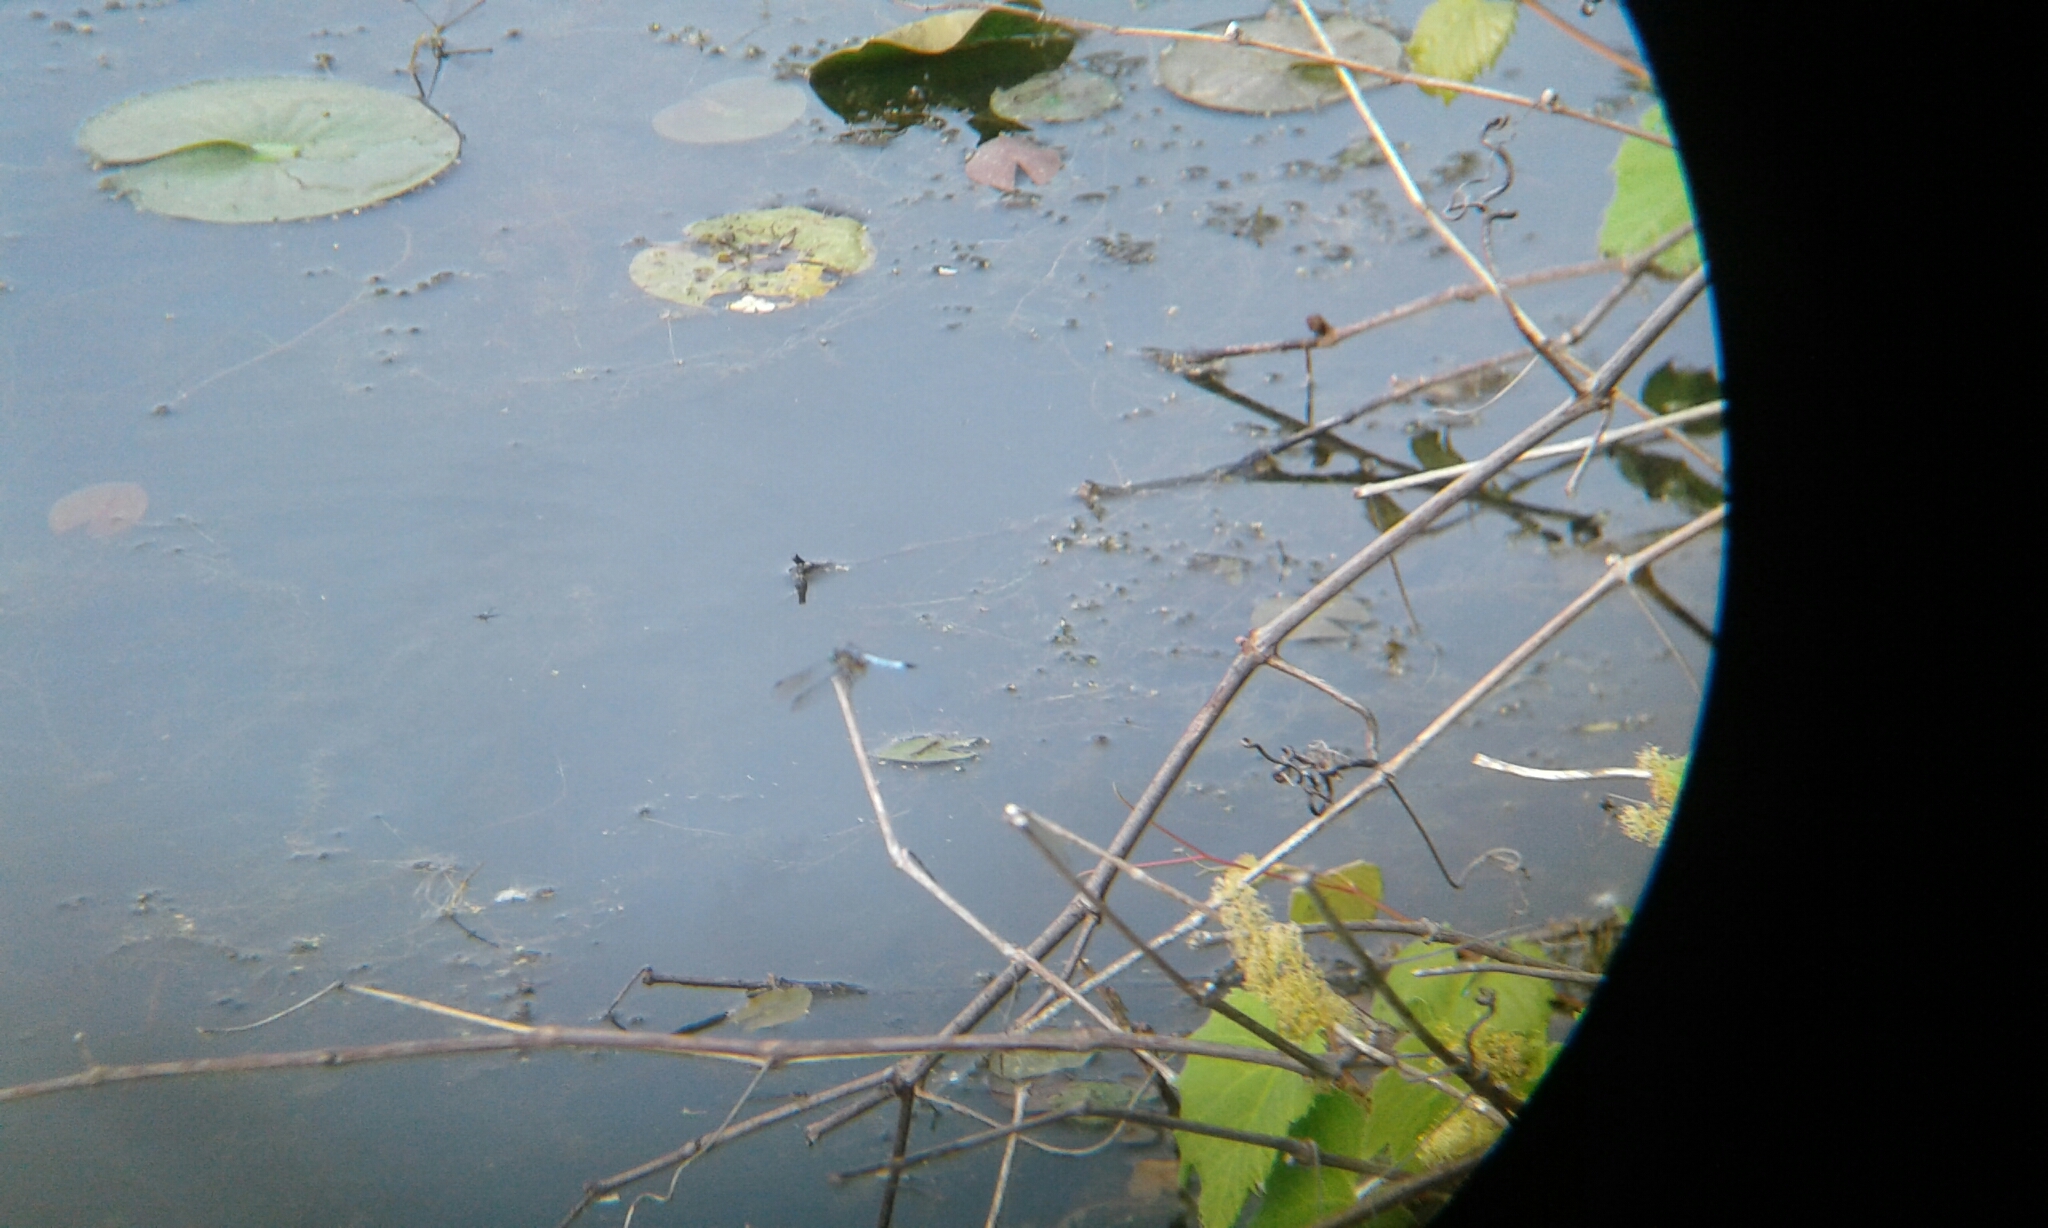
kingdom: Animalia
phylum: Arthropoda
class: Insecta
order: Odonata
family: Libellulidae
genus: Pachydiplax
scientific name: Pachydiplax longipennis
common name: Blue dasher
